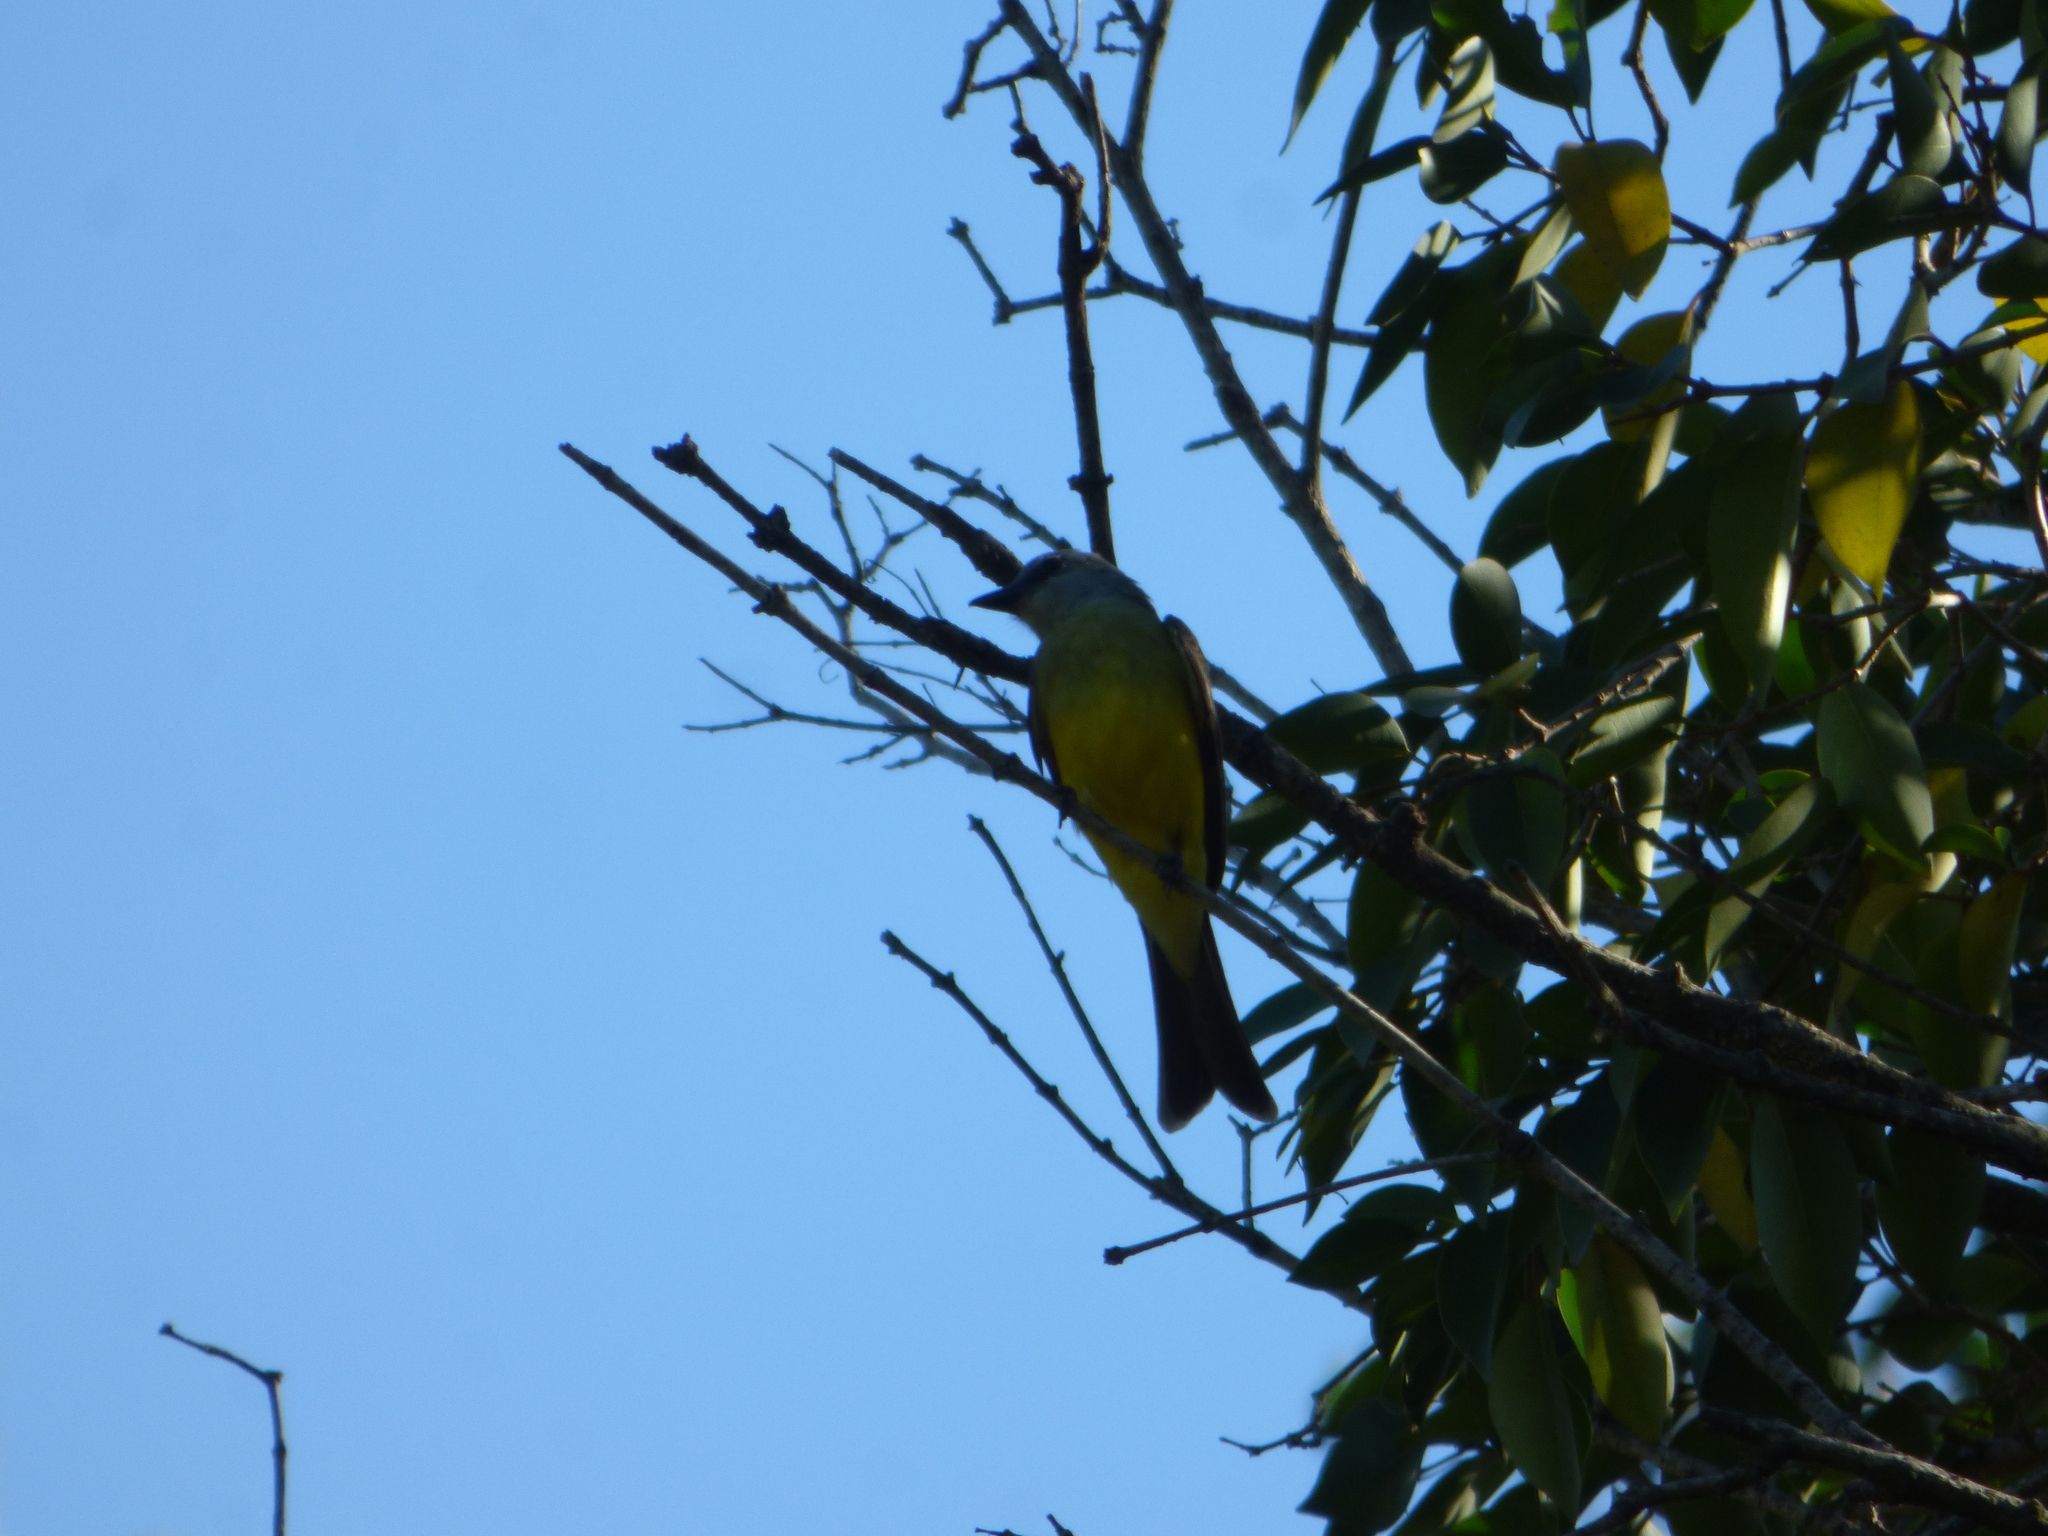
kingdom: Animalia
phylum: Chordata
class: Aves
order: Passeriformes
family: Tyrannidae
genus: Tyrannus
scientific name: Tyrannus melancholicus
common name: Tropical kingbird
